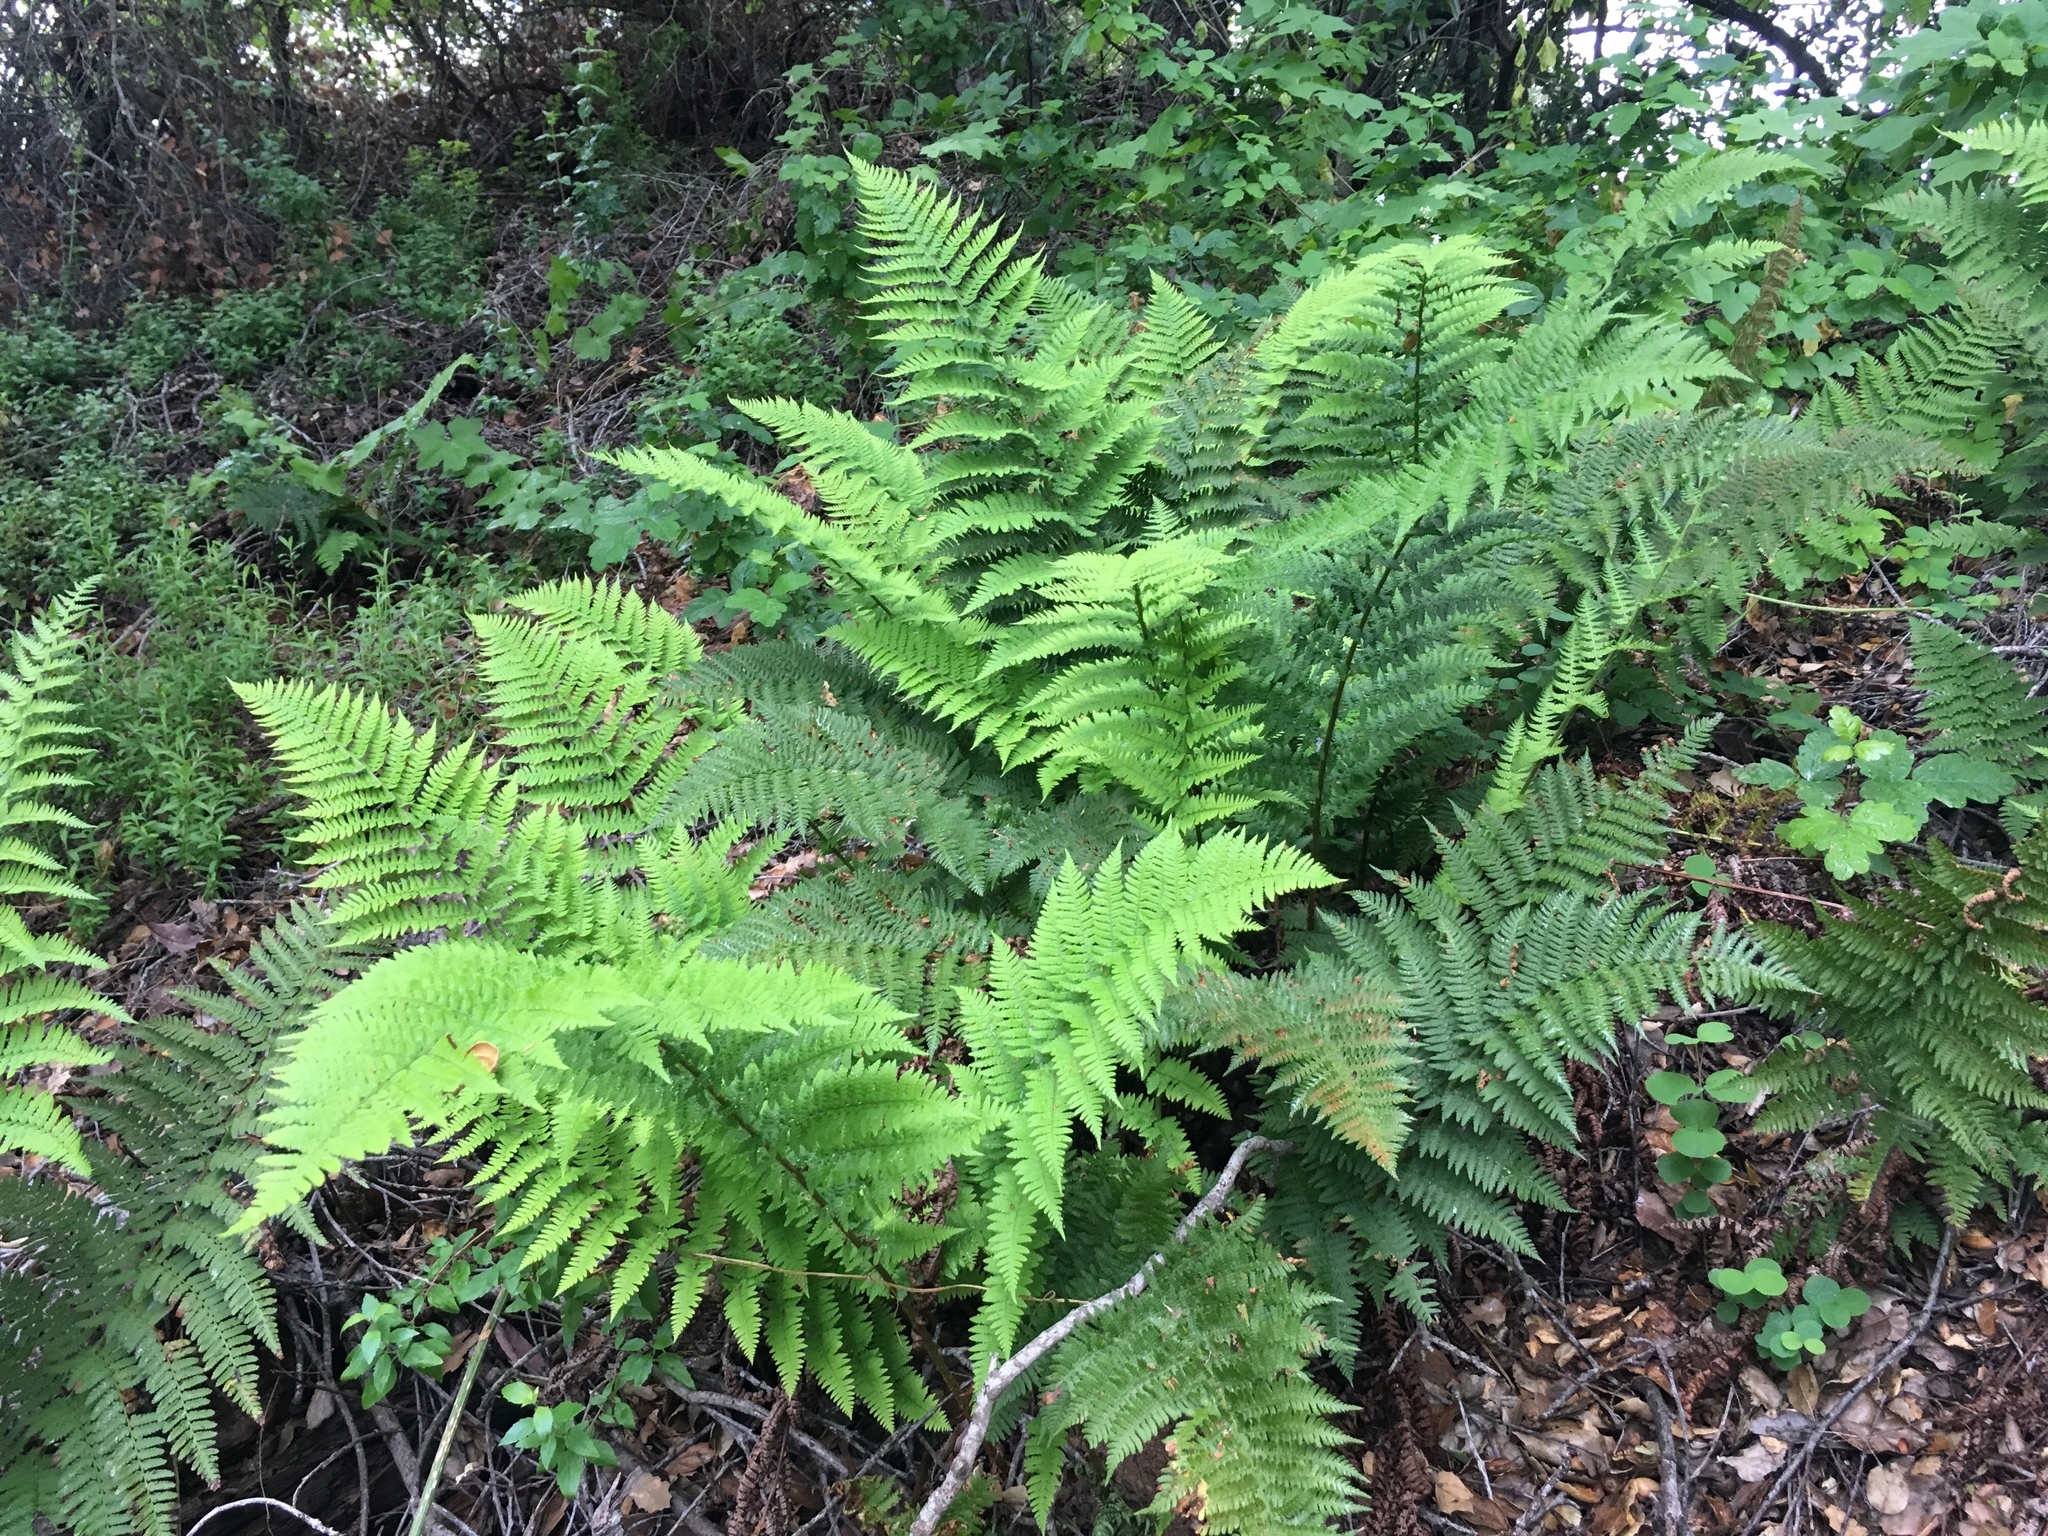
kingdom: Plantae
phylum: Tracheophyta
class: Polypodiopsida
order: Polypodiales
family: Dryopteridaceae
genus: Dryopteris
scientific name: Dryopteris arguta
